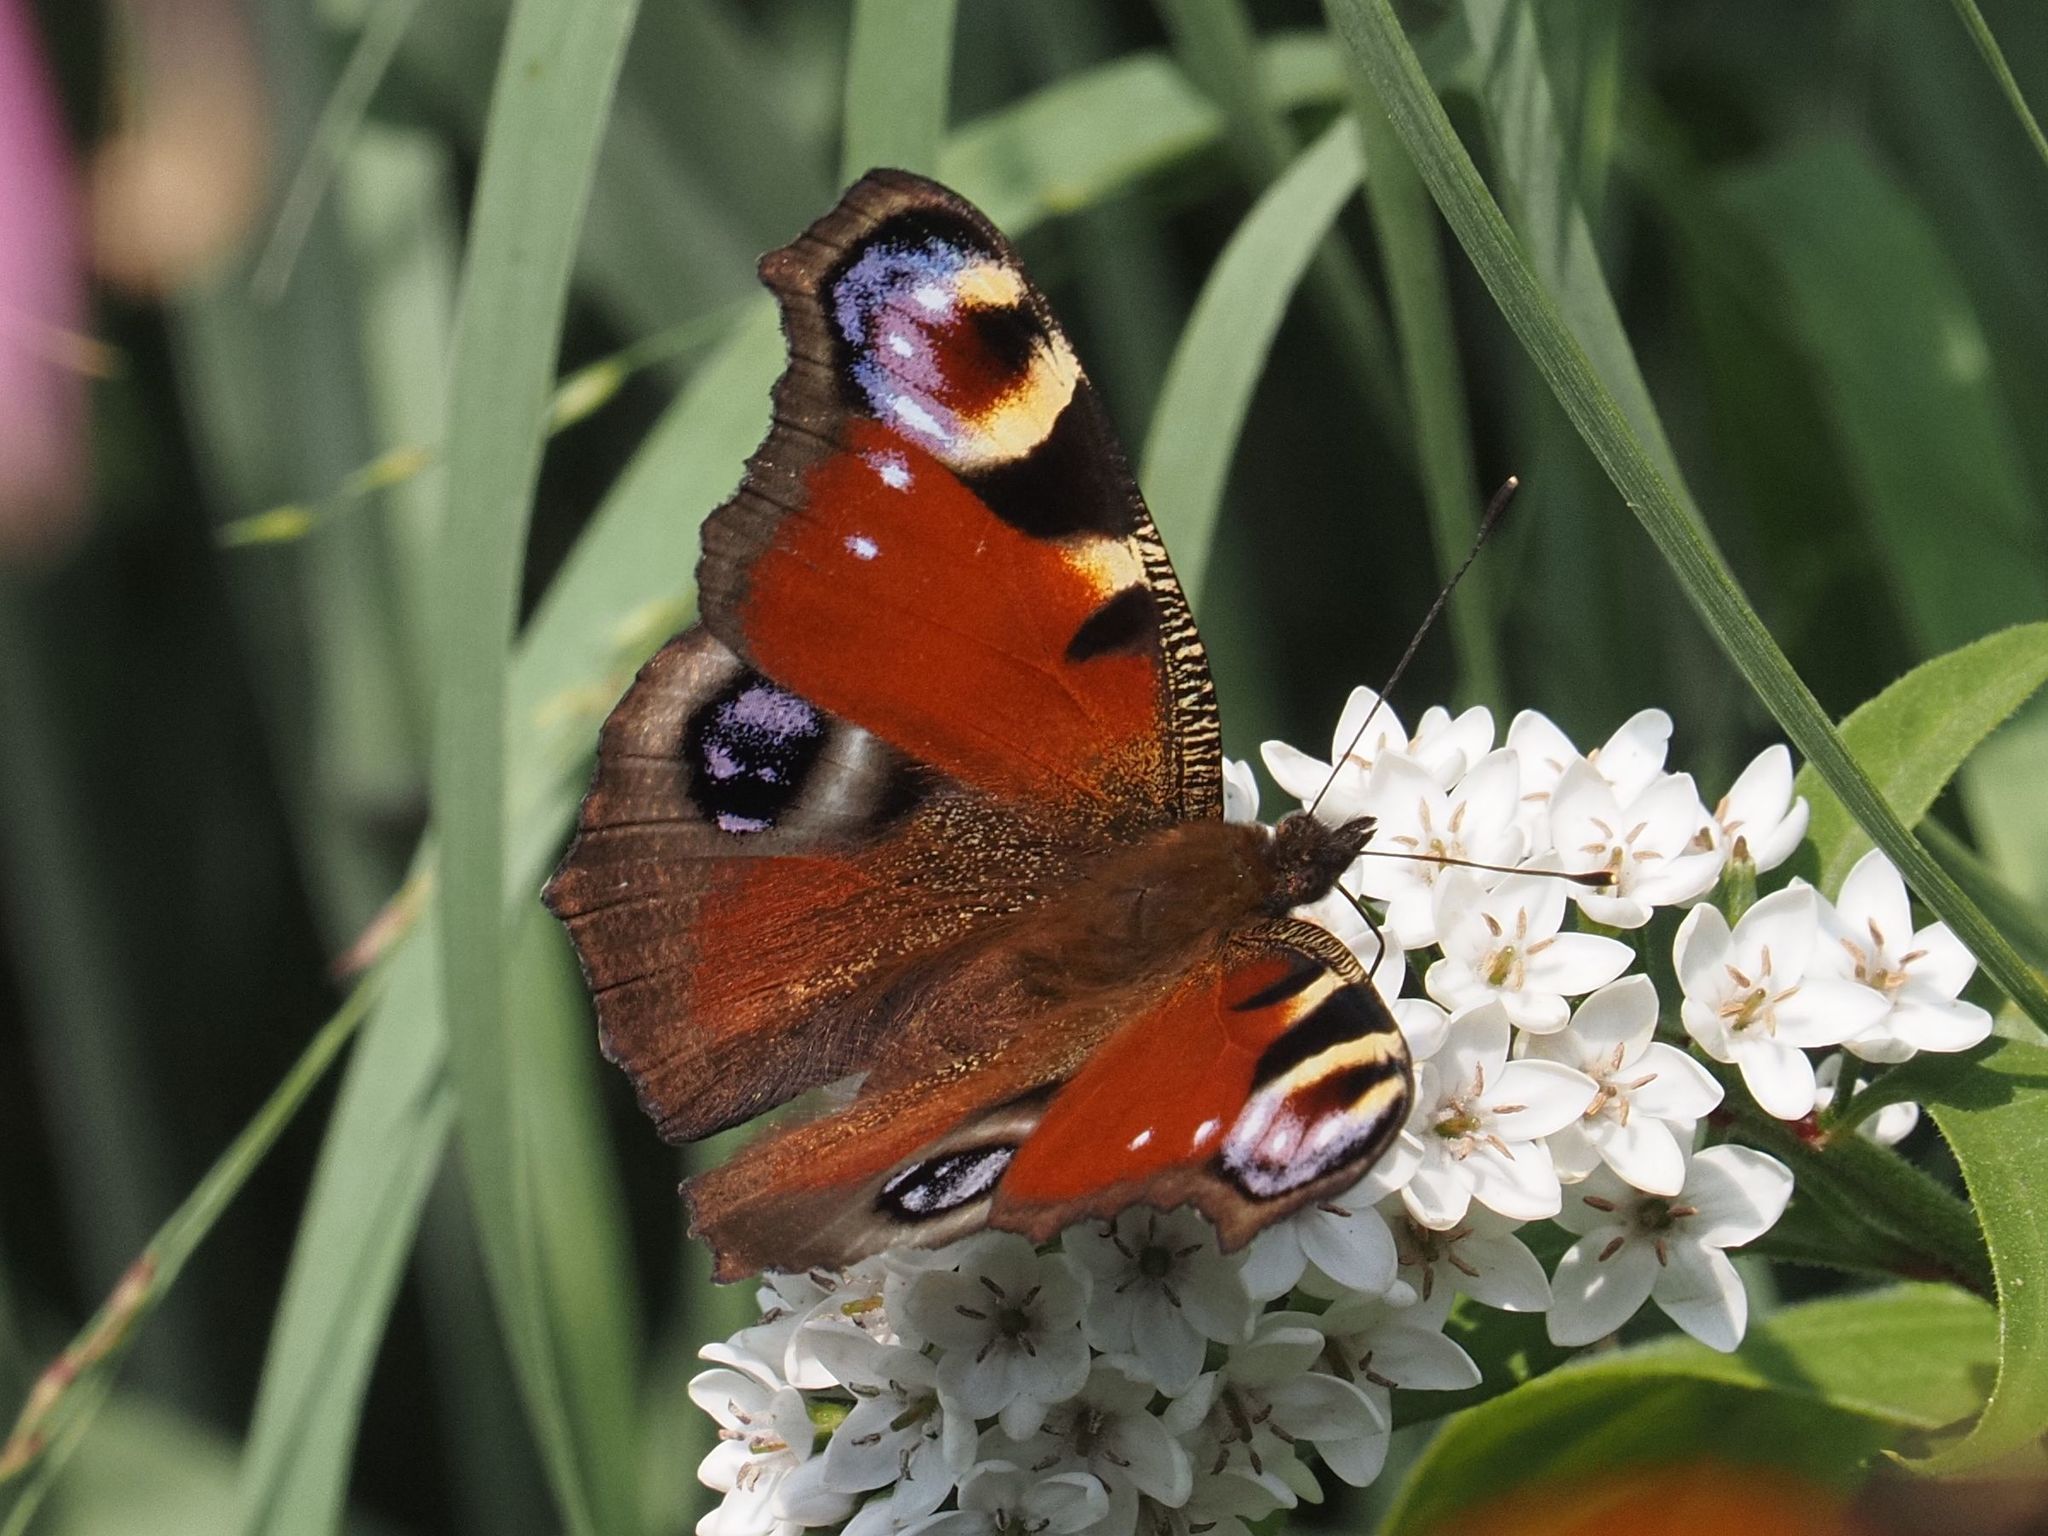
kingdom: Animalia
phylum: Arthropoda
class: Insecta
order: Lepidoptera
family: Nymphalidae
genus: Aglais
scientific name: Aglais io
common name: Peacock
